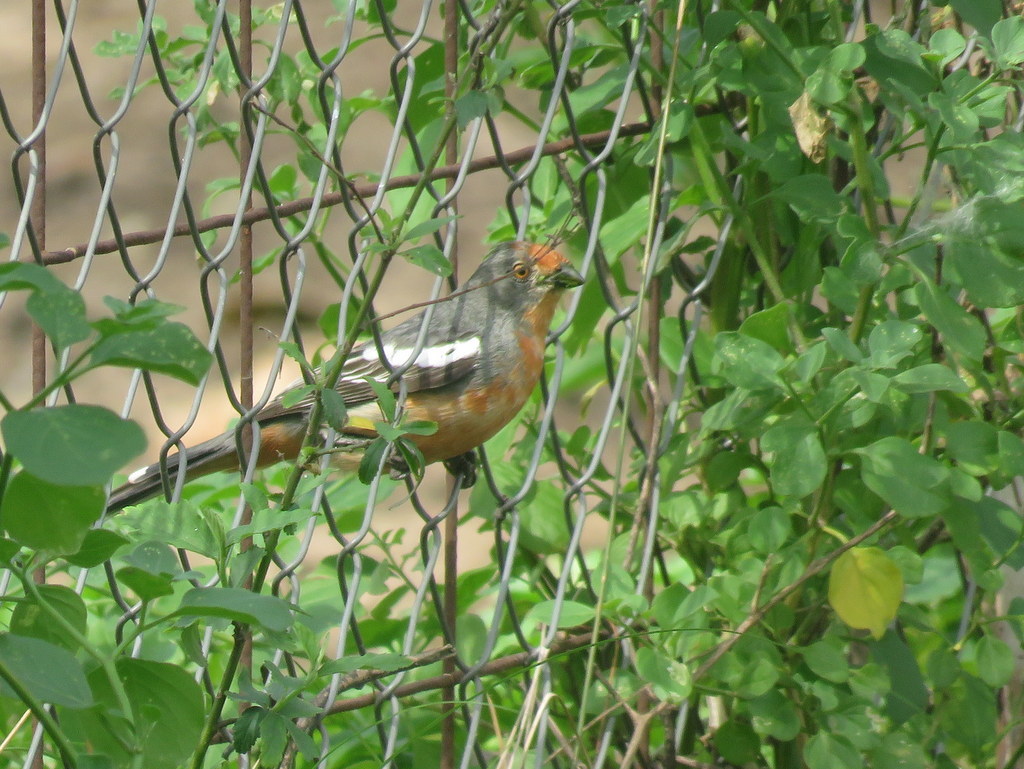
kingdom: Animalia
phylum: Chordata
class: Aves
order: Passeriformes
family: Cotingidae
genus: Phytotoma
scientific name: Phytotoma rutila
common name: White-tipped plantcutter
